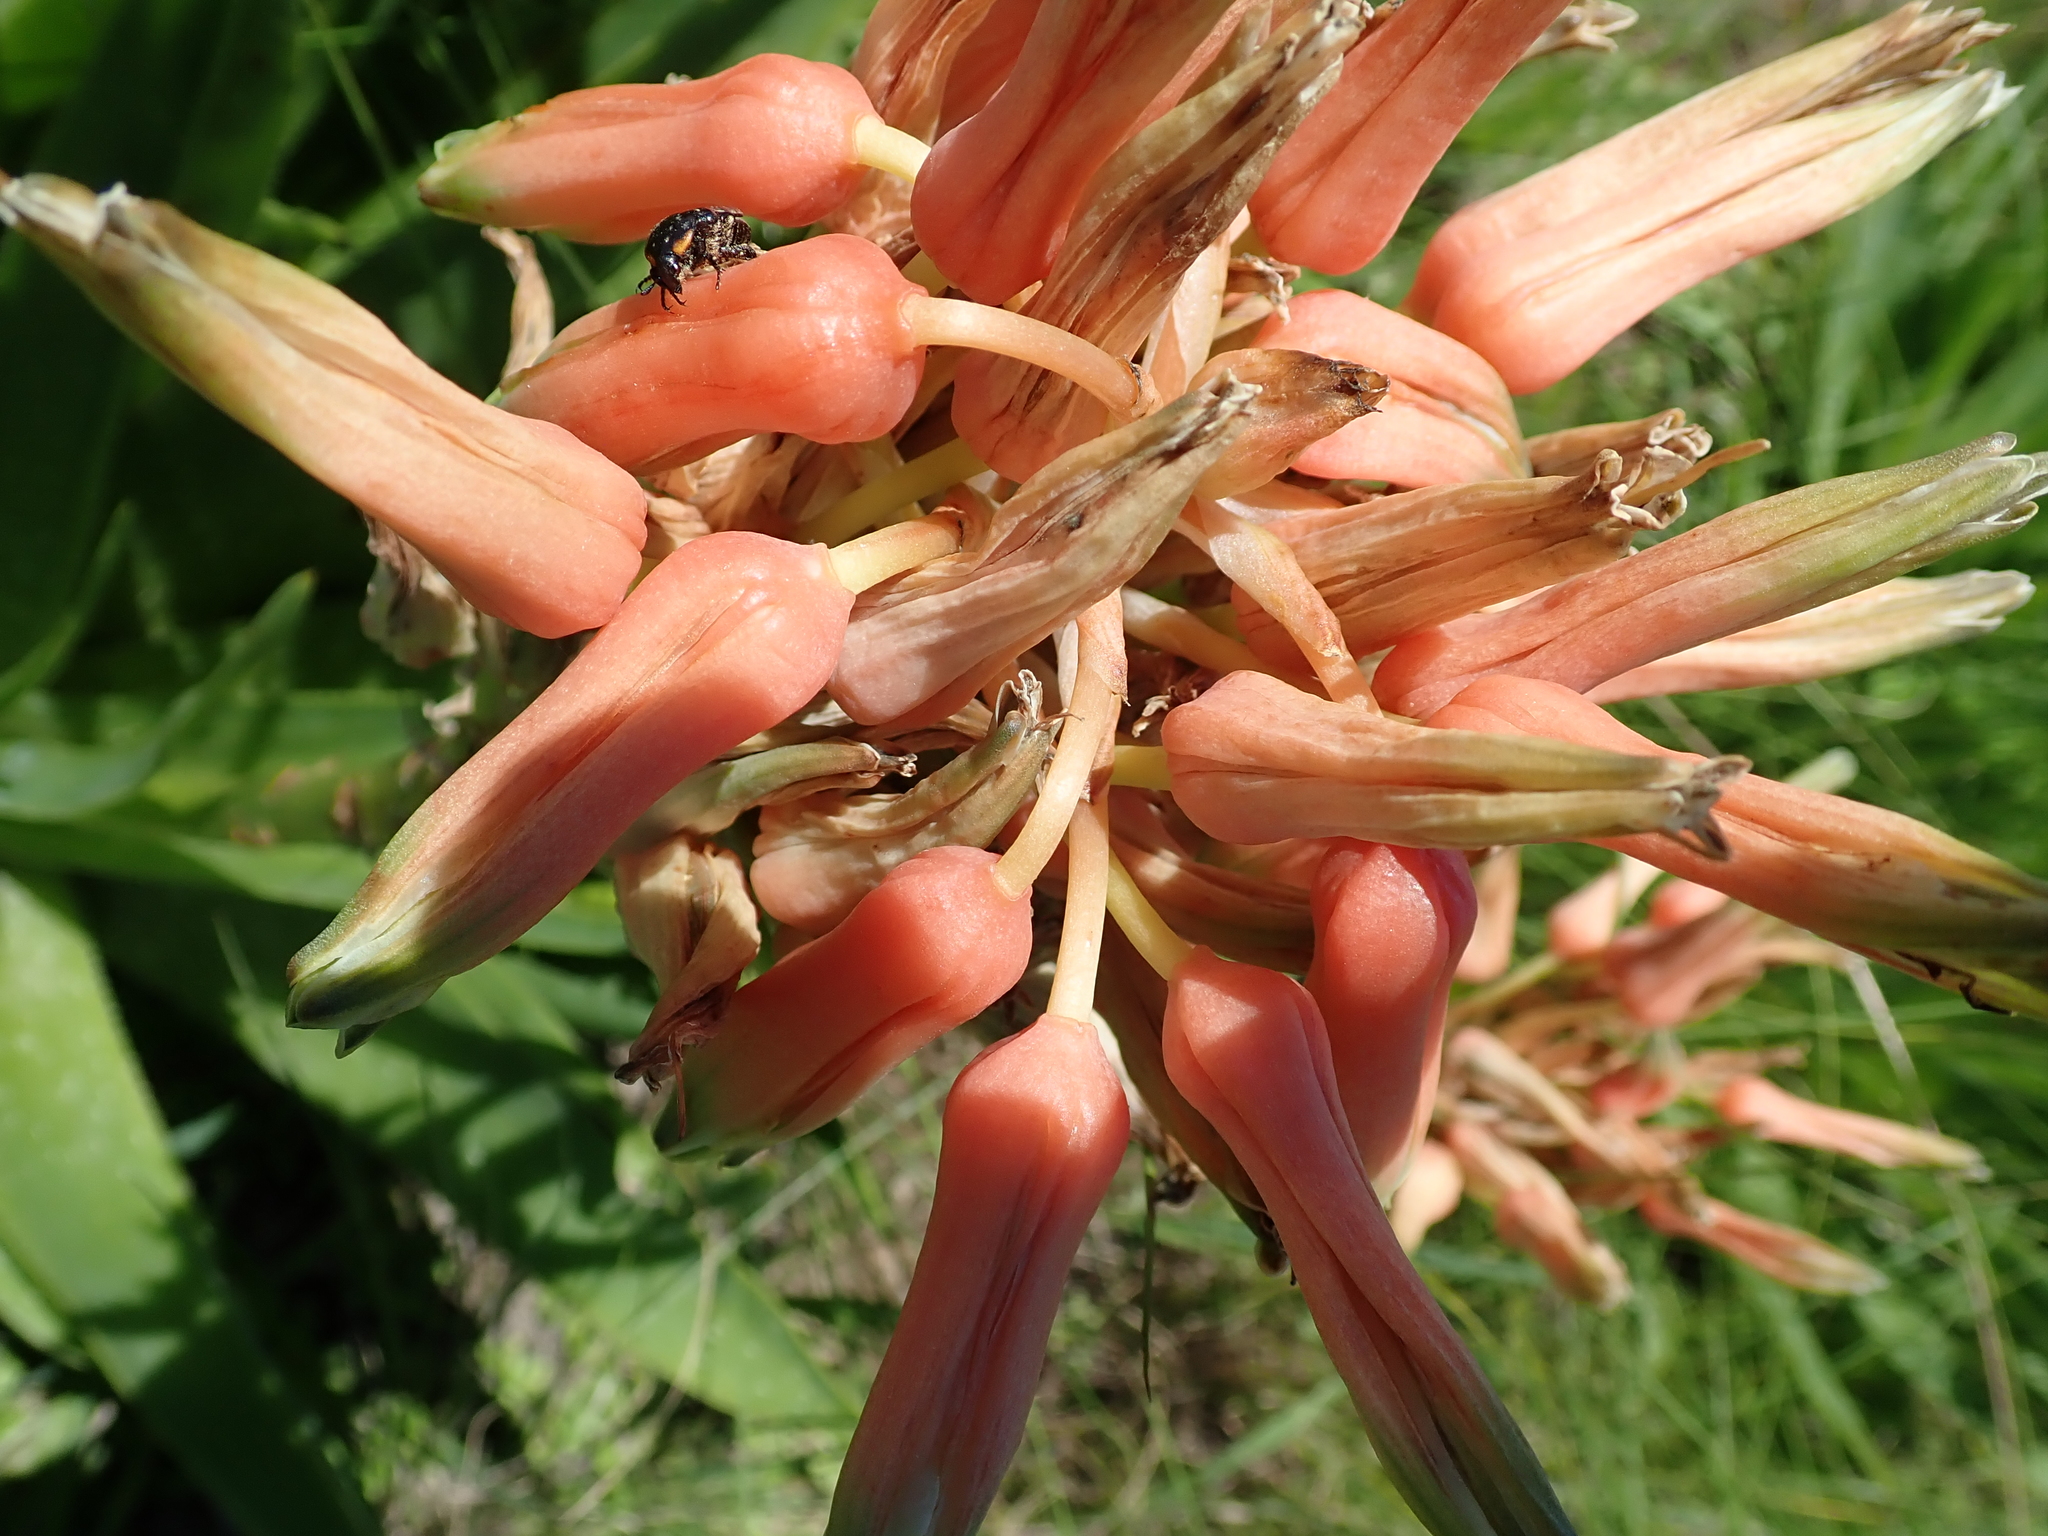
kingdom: Plantae
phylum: Tracheophyta
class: Liliopsida
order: Asparagales
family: Asphodelaceae
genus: Aloe
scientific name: Aloe boylei
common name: Broad-leaved grass aloe
